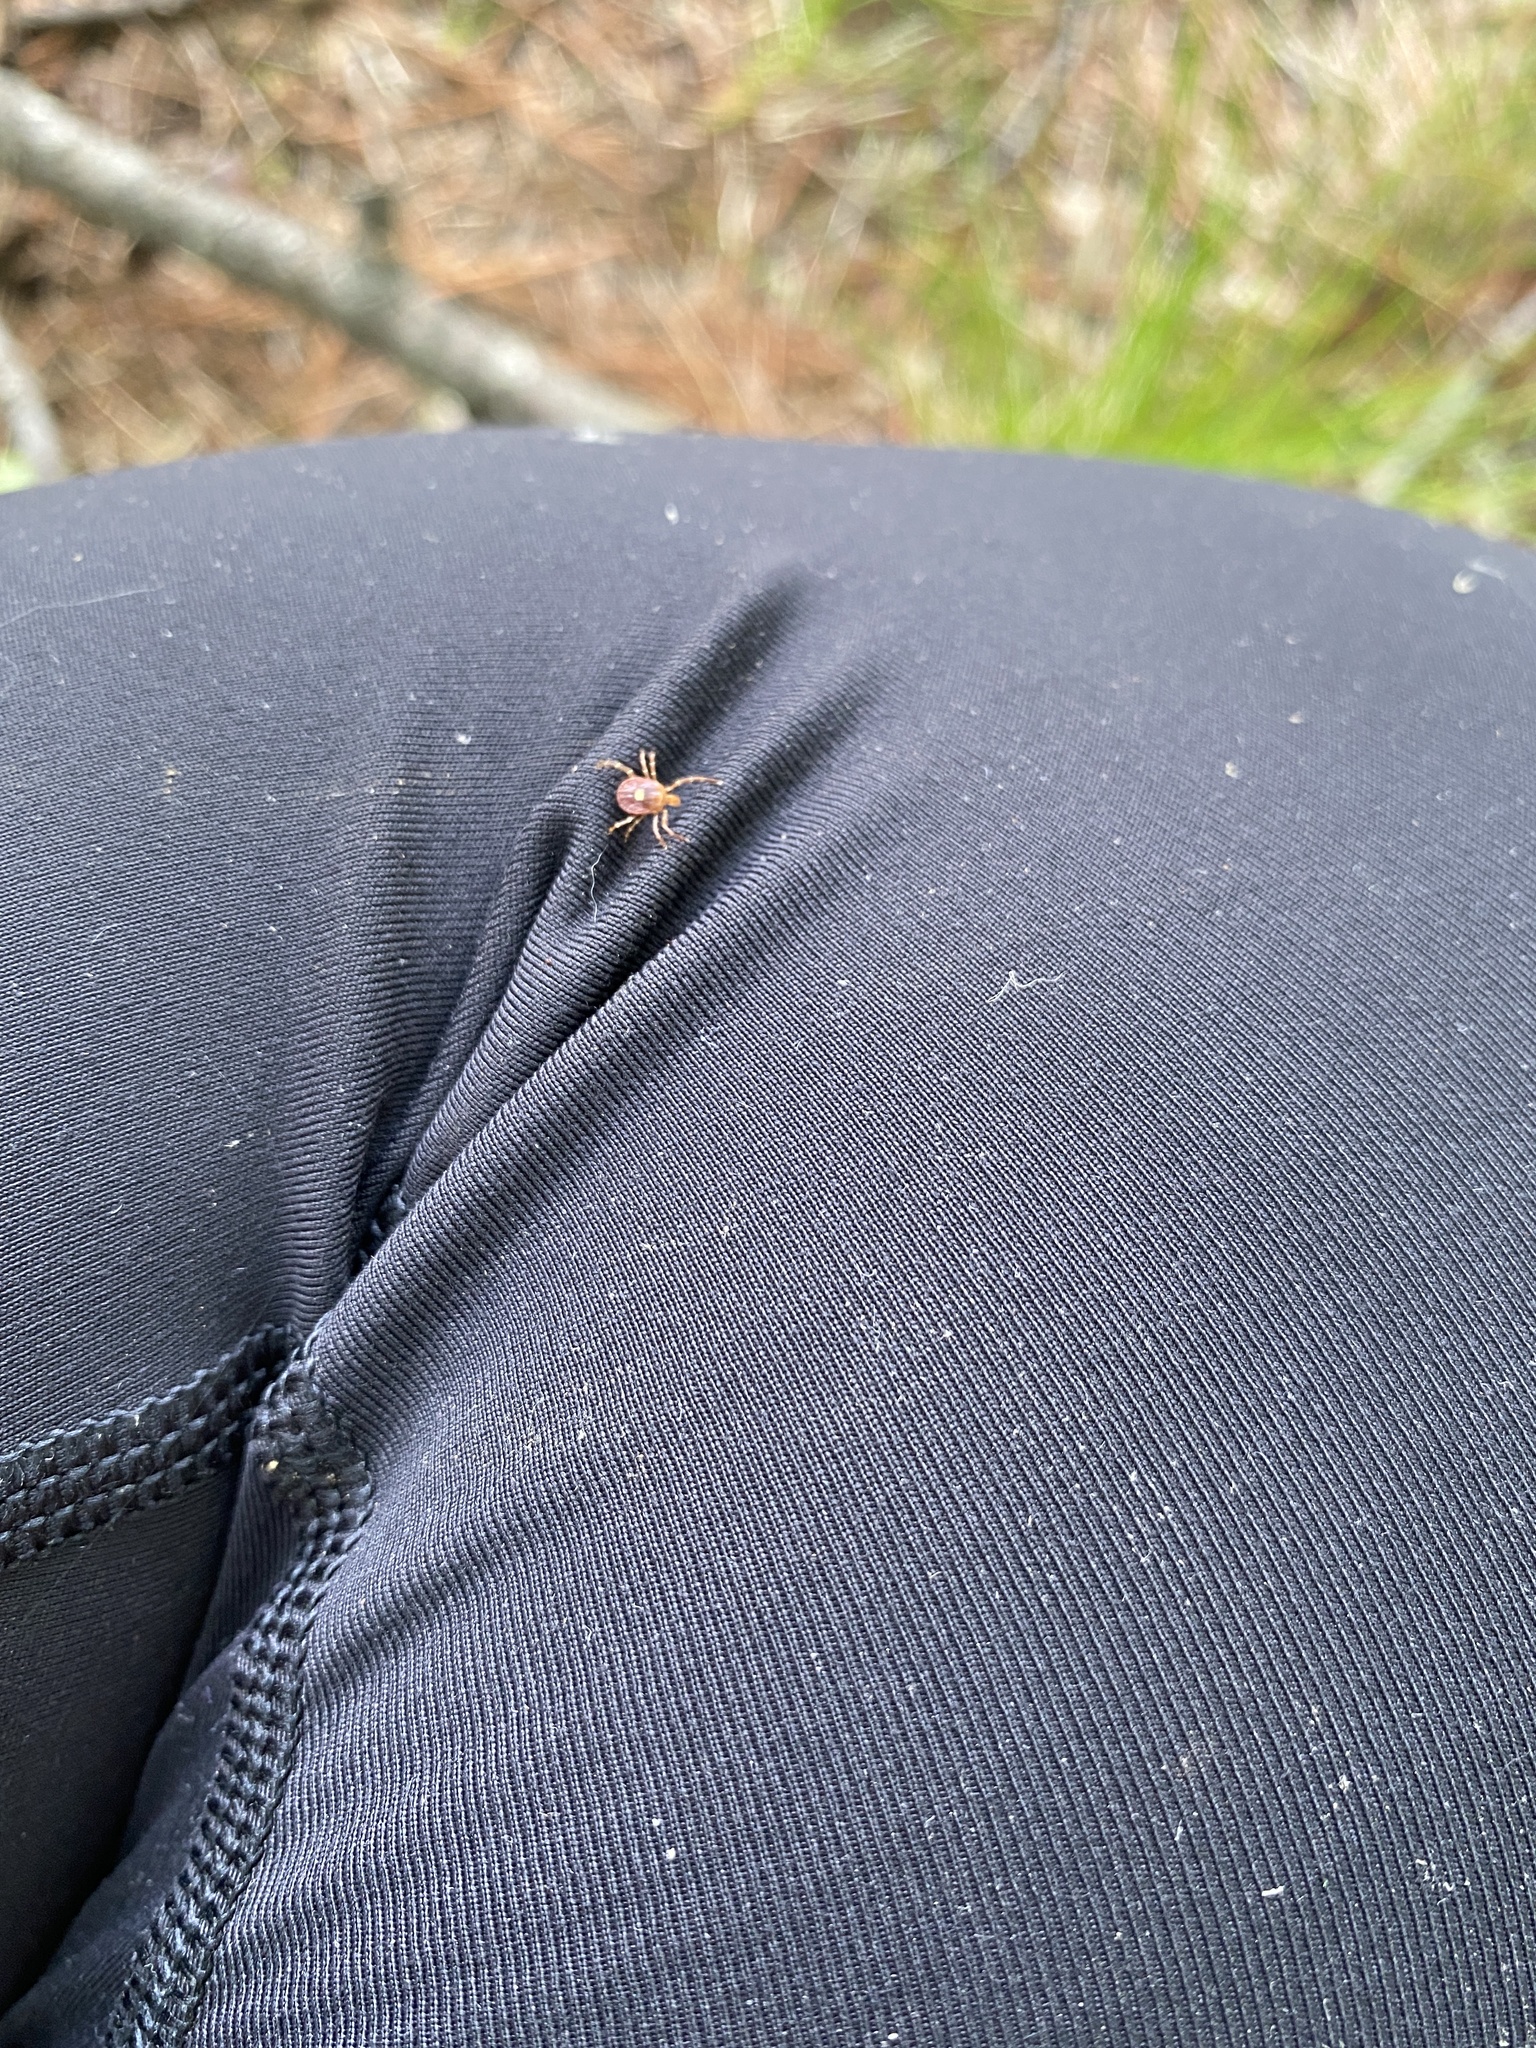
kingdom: Animalia
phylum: Arthropoda
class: Arachnida
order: Ixodida
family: Ixodidae
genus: Amblyomma
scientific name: Amblyomma americanum
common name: Lone star tick
